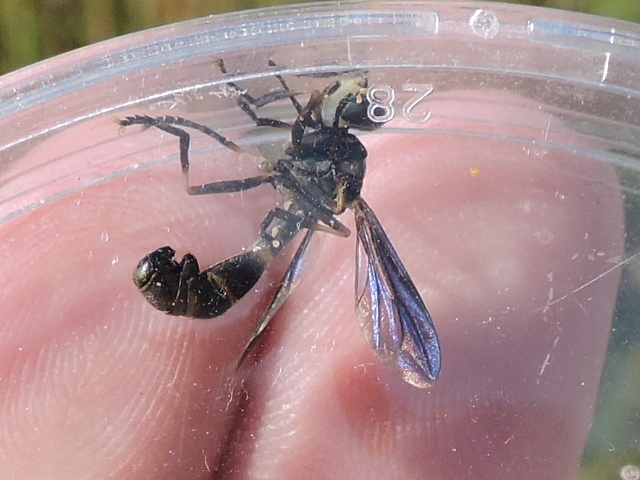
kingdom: Animalia
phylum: Arthropoda
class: Insecta
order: Diptera
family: Conopidae
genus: Physoconops
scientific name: Physoconops brachyrhynchus
